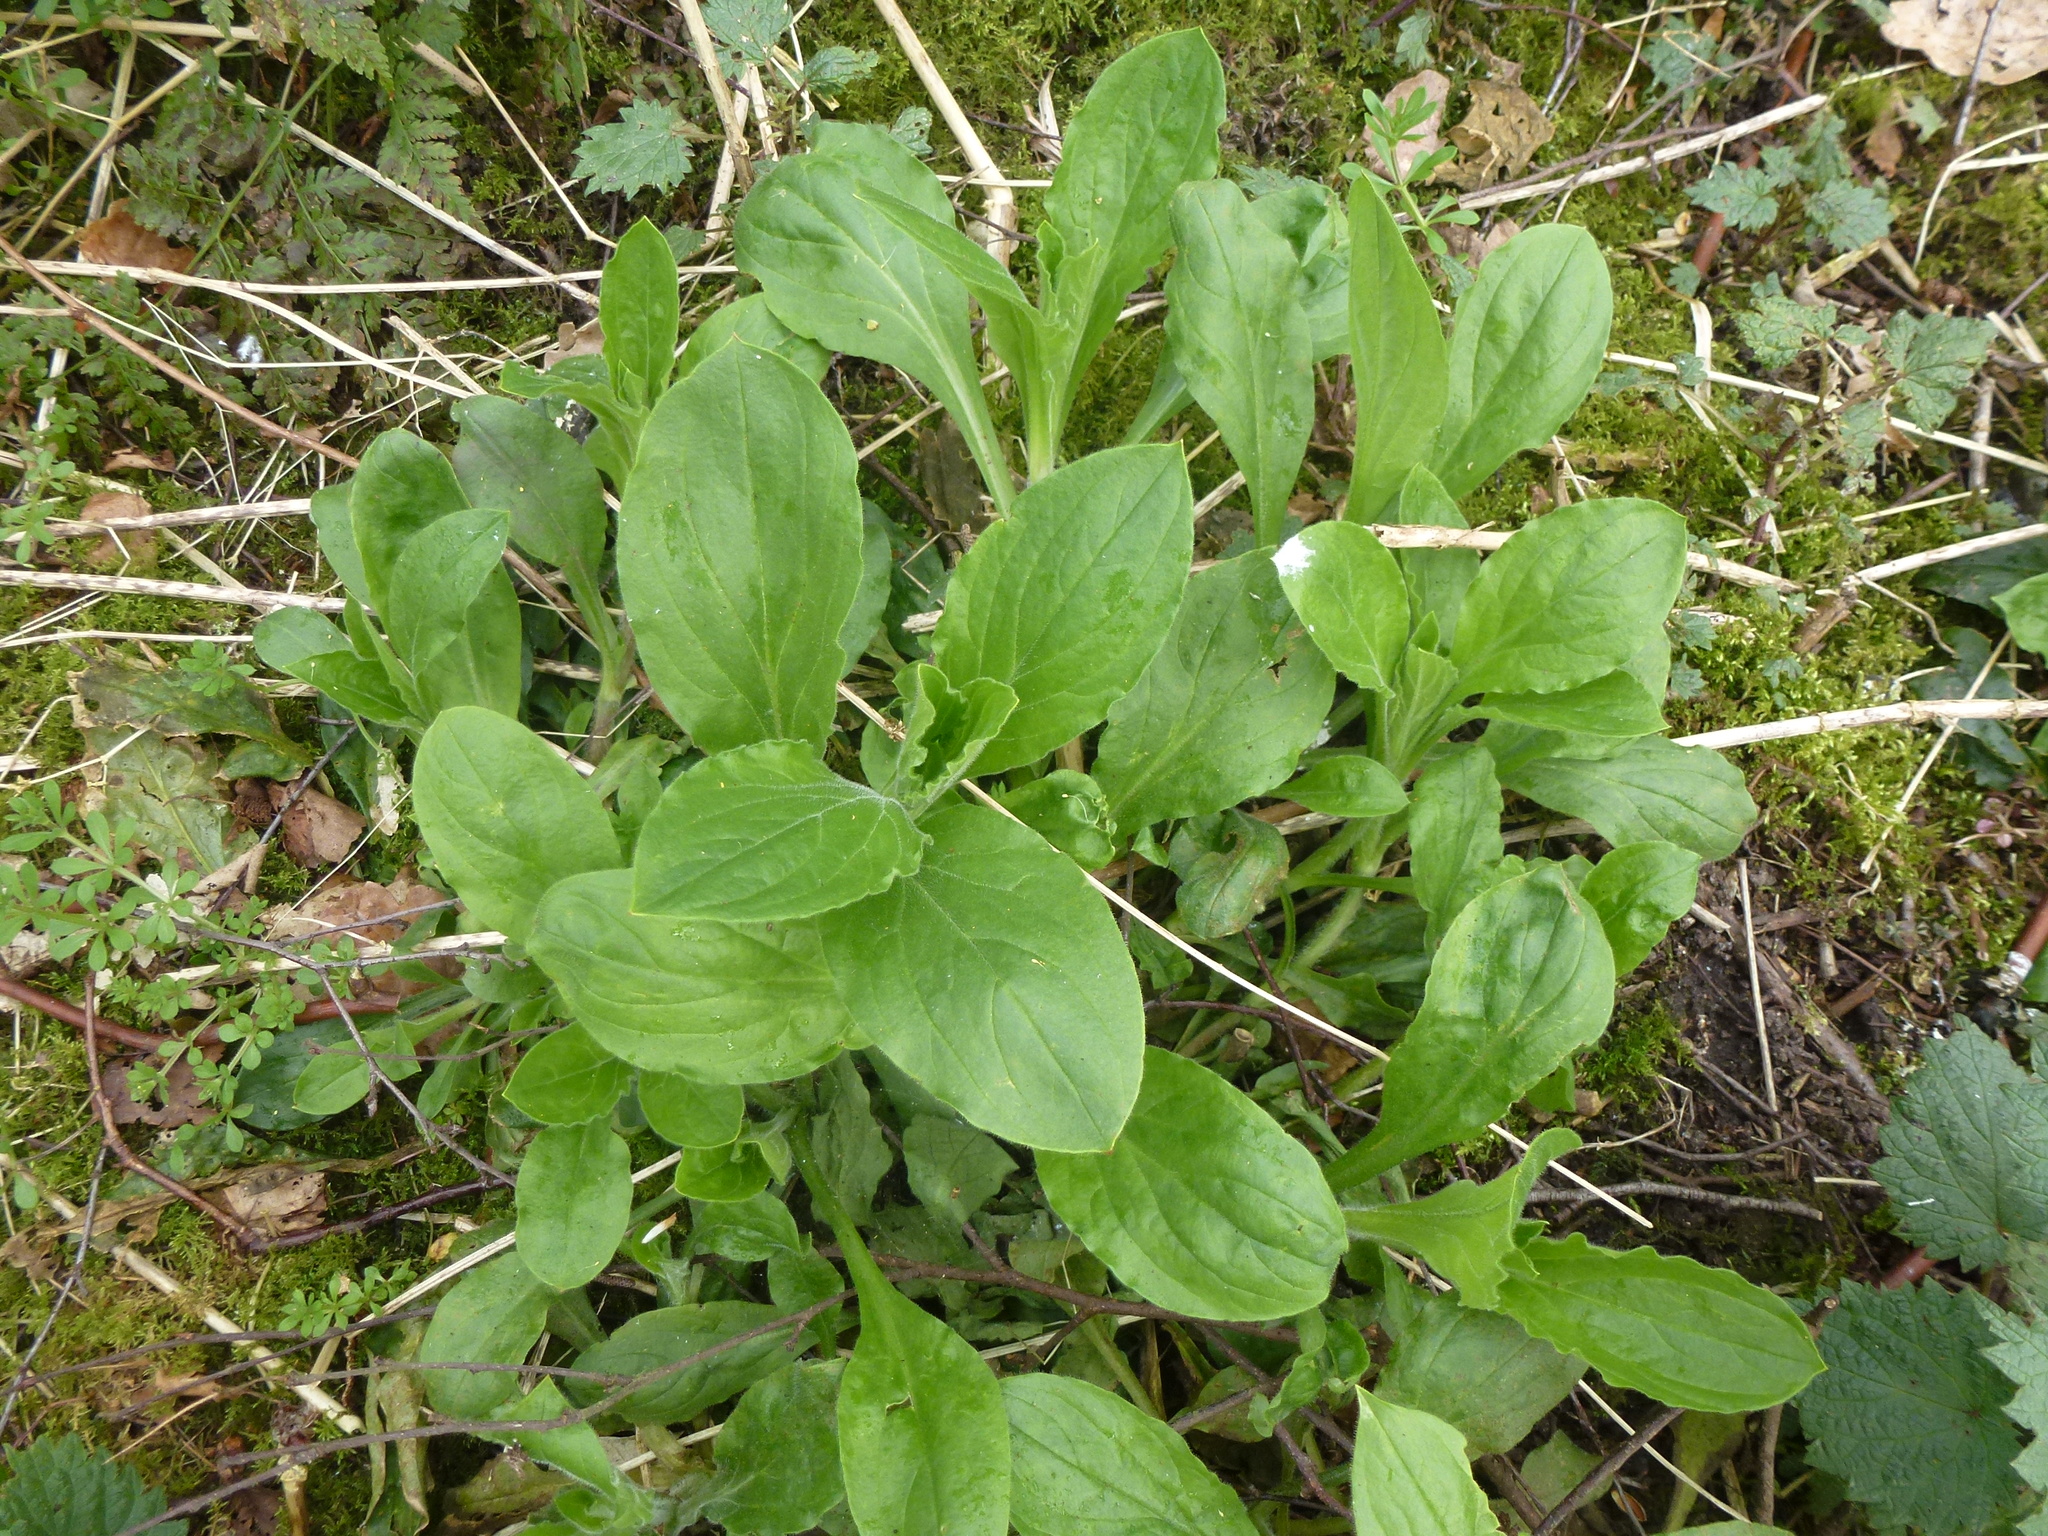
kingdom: Plantae
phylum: Tracheophyta
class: Magnoliopsida
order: Caryophyllales
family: Caryophyllaceae
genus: Silene
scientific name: Silene dioica
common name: Red campion
